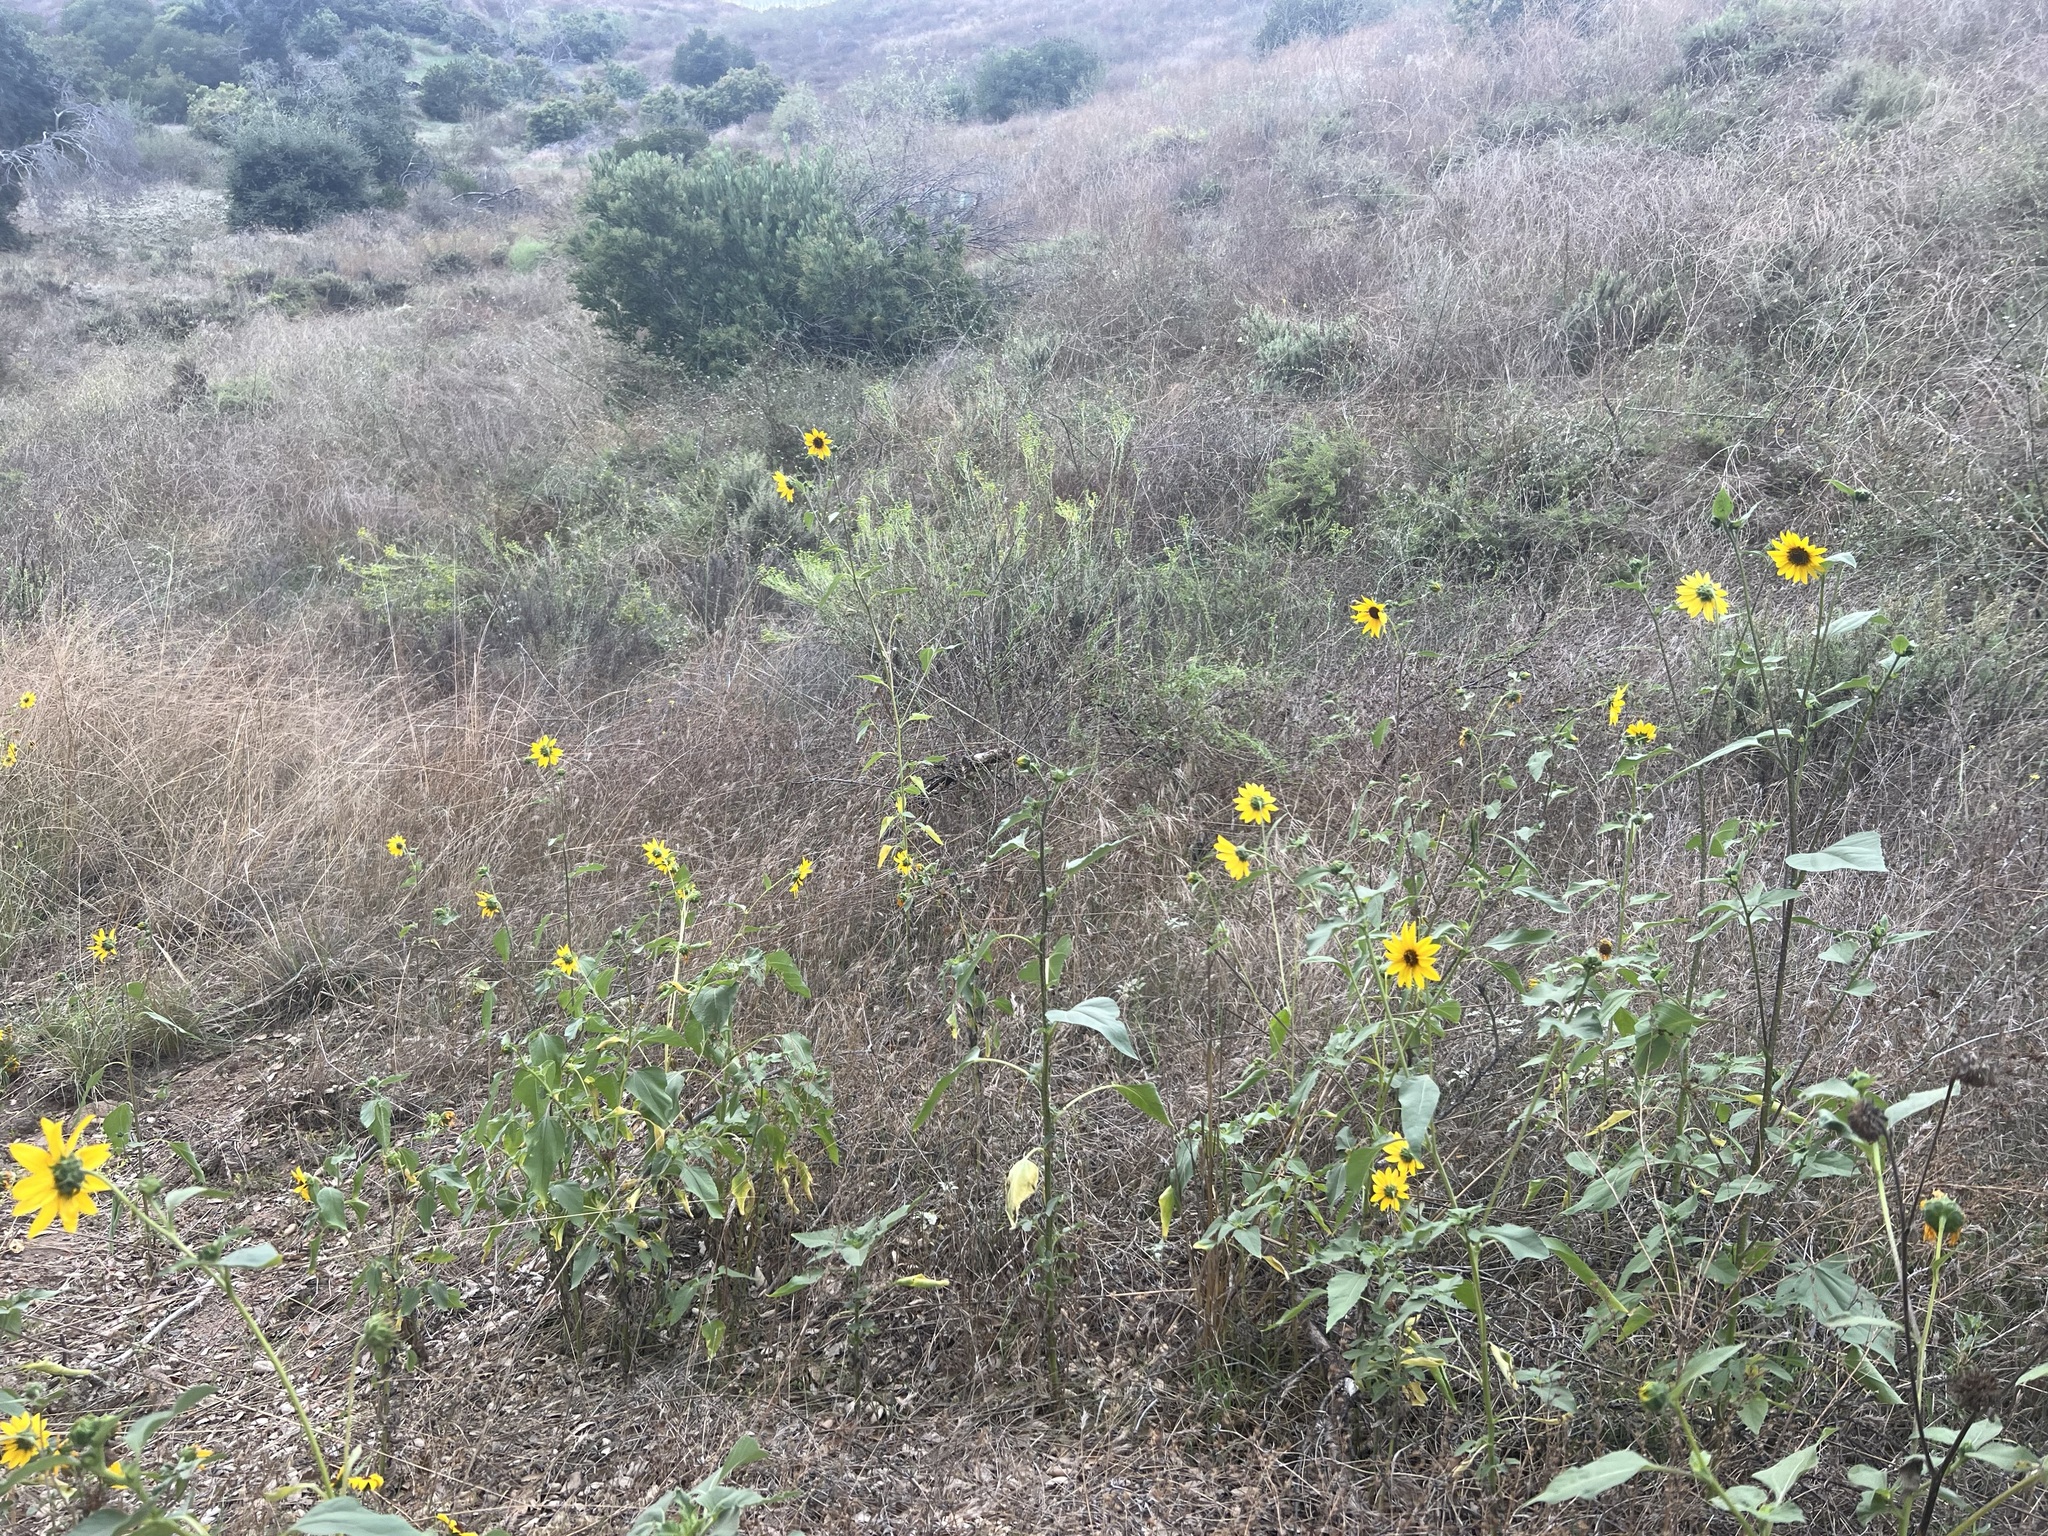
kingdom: Plantae
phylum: Tracheophyta
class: Magnoliopsida
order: Asterales
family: Asteraceae
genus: Helianthus
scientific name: Helianthus annuus
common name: Sunflower
